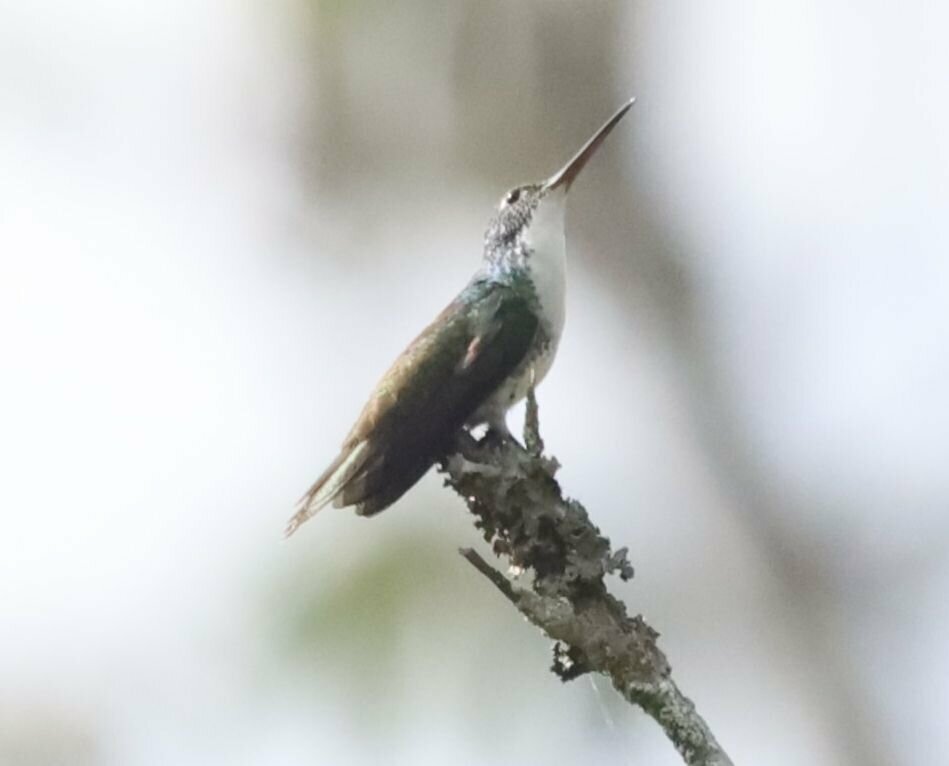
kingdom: Animalia
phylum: Chordata
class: Aves
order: Apodiformes
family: Trochilidae
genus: Uranomitra
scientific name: Uranomitra franciae
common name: Andean emerald
